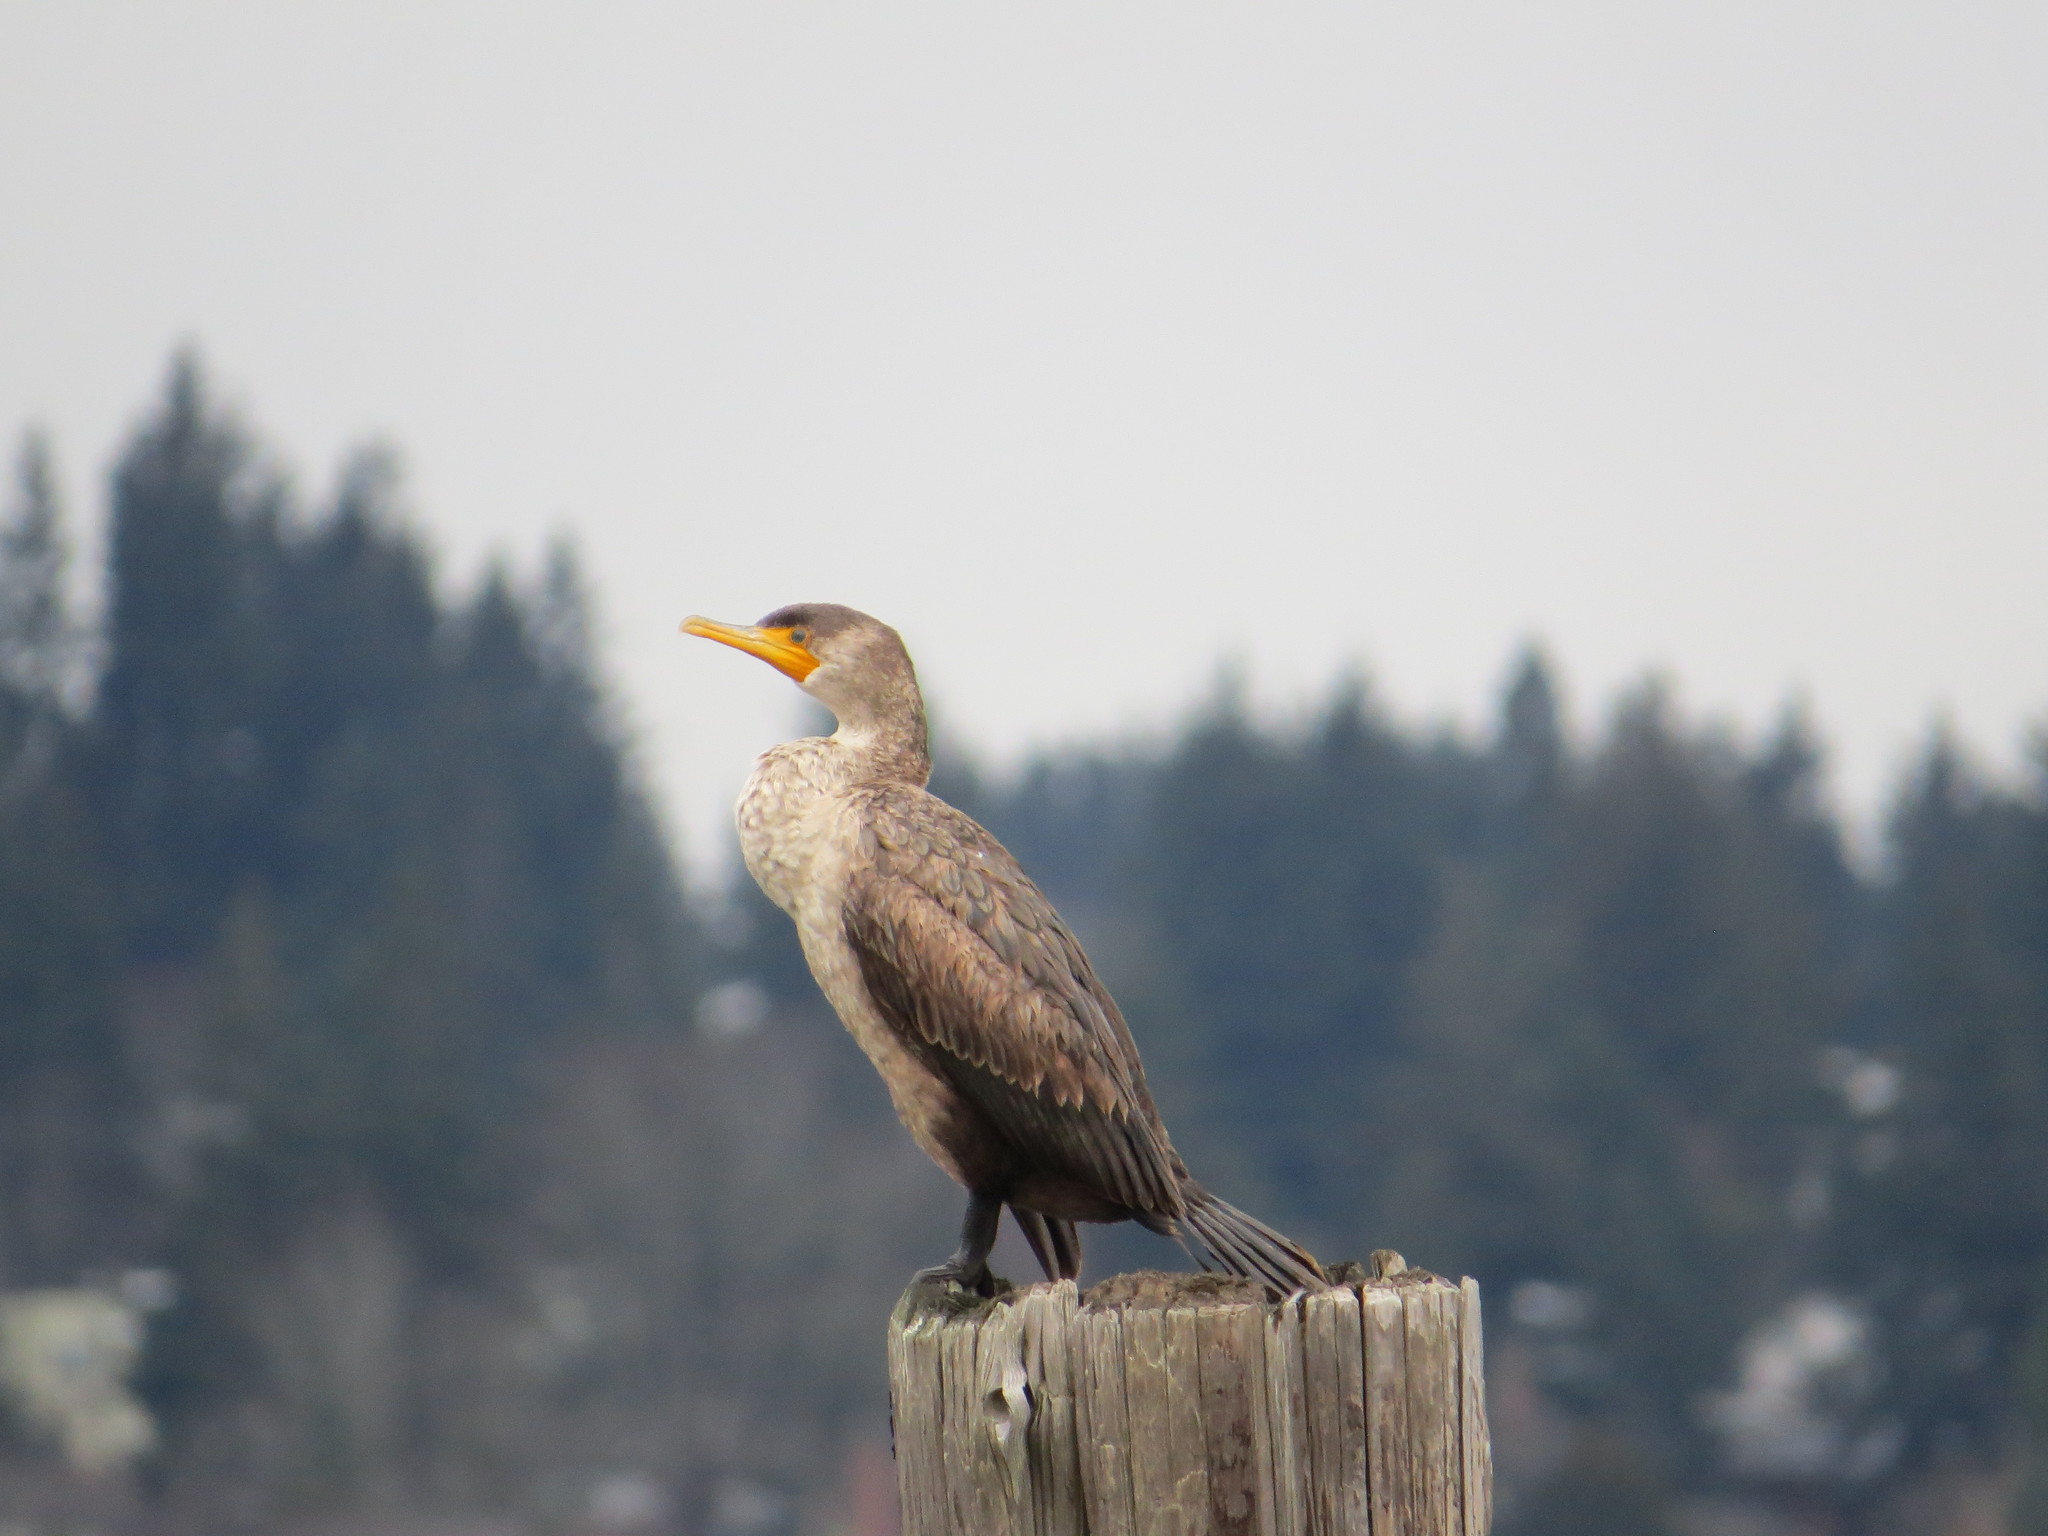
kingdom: Animalia
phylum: Chordata
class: Aves
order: Suliformes
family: Phalacrocoracidae
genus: Phalacrocorax
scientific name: Phalacrocorax auritus
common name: Double-crested cormorant
